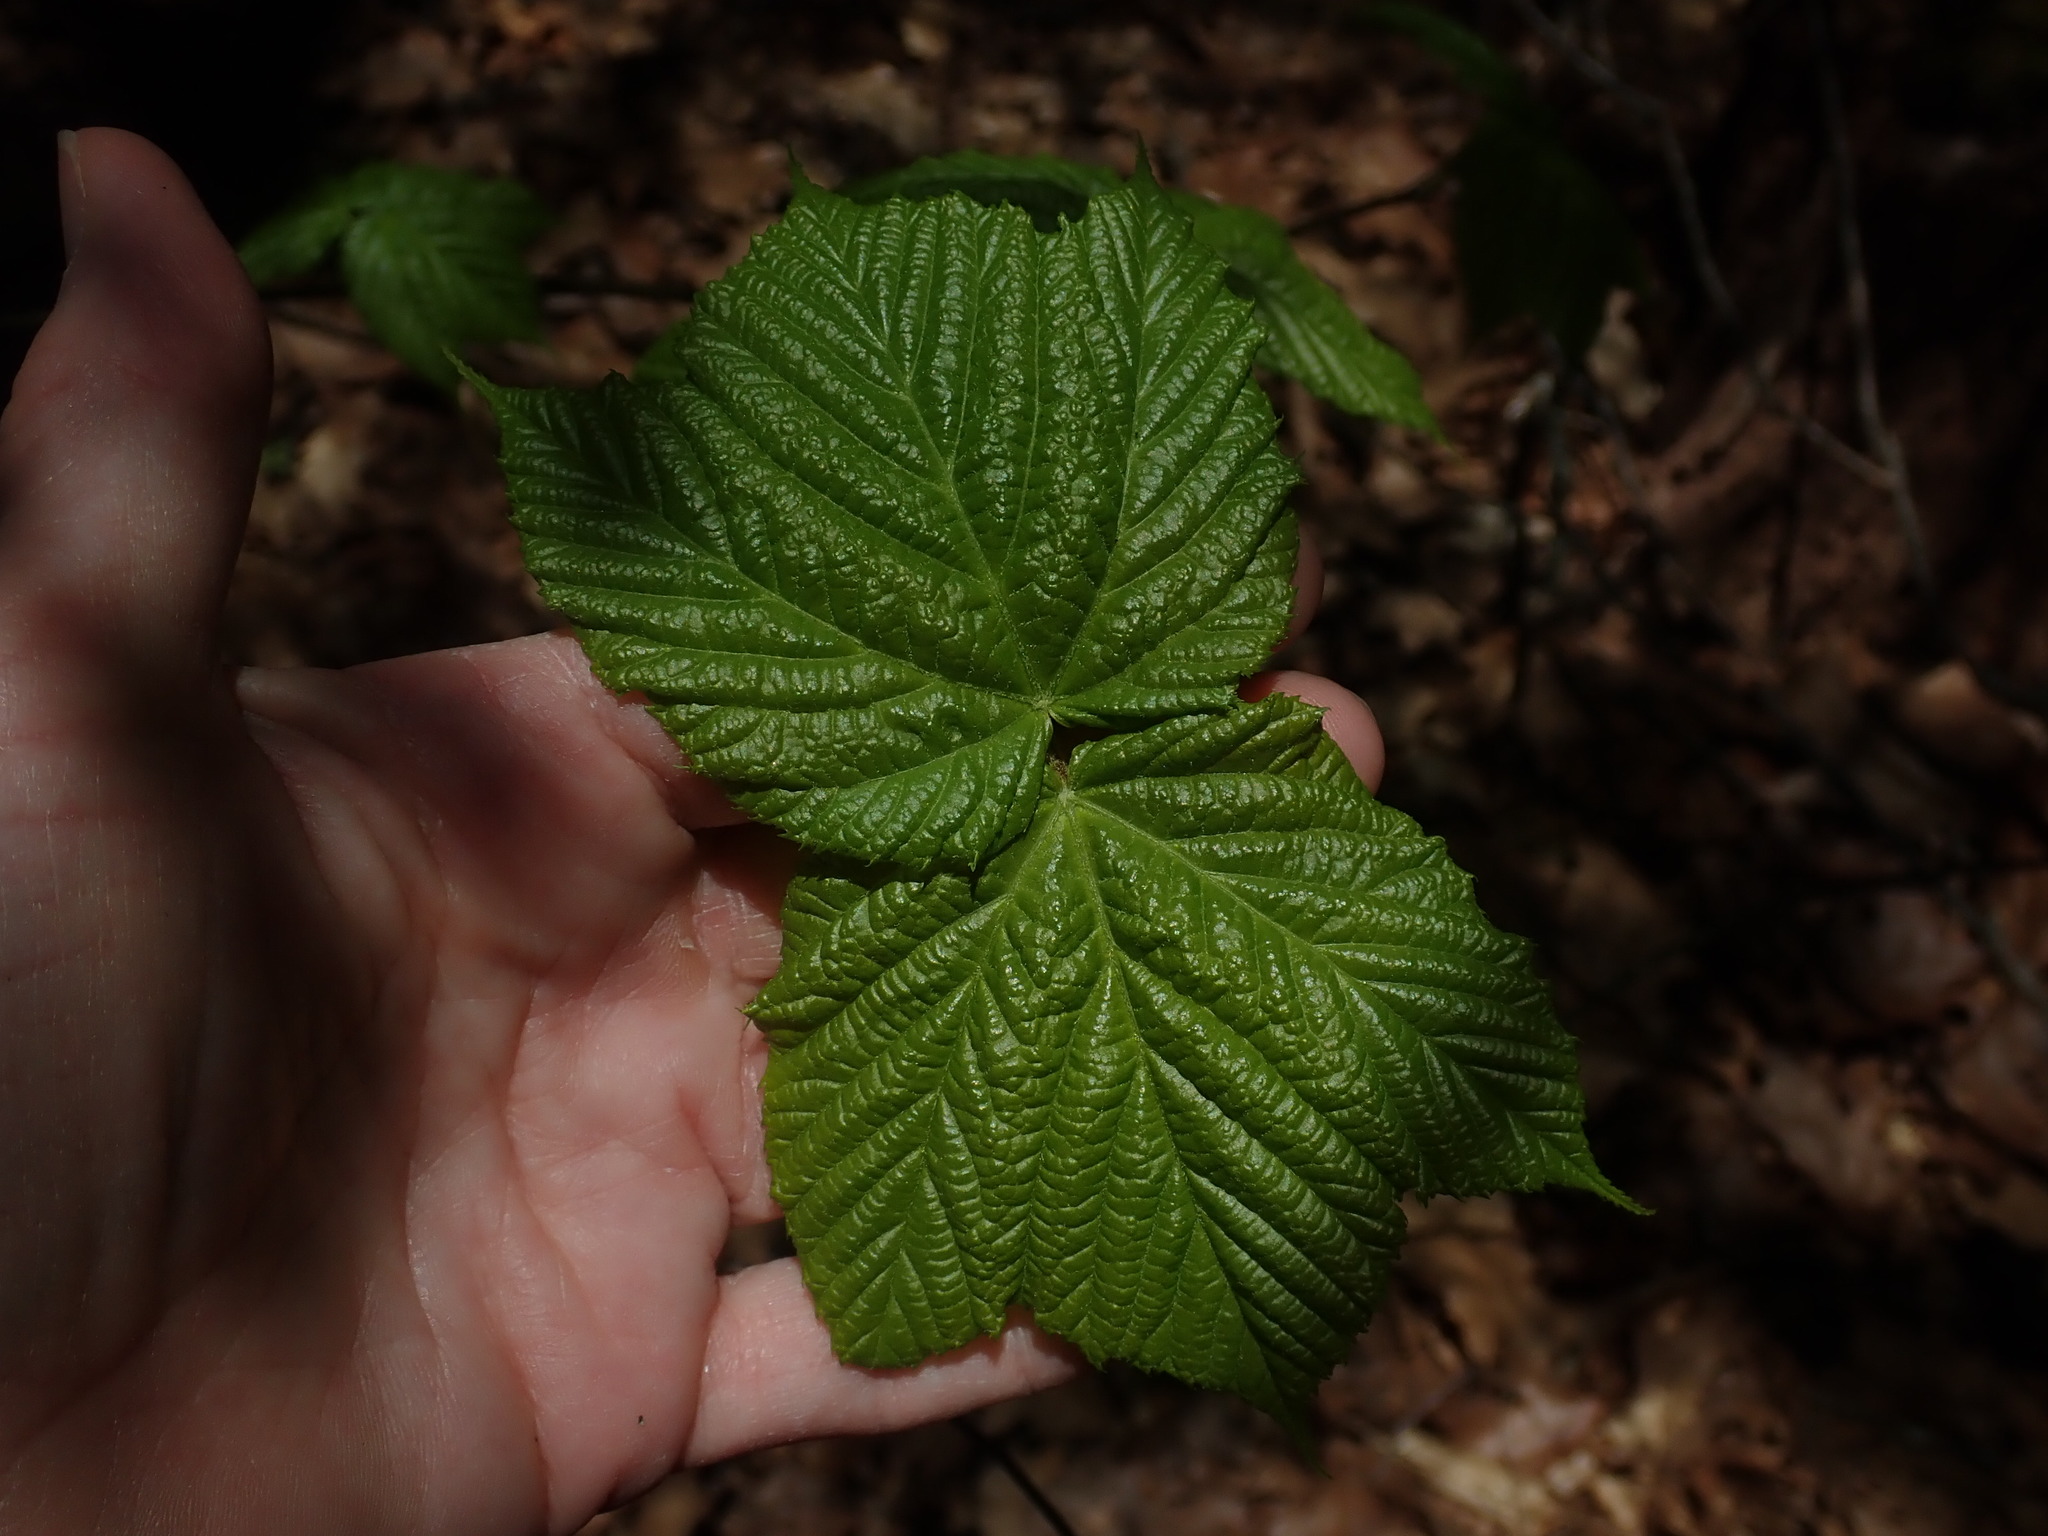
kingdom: Plantae
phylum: Tracheophyta
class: Magnoliopsida
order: Sapindales
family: Sapindaceae
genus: Acer
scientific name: Acer pensylvanicum
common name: Moosewood
